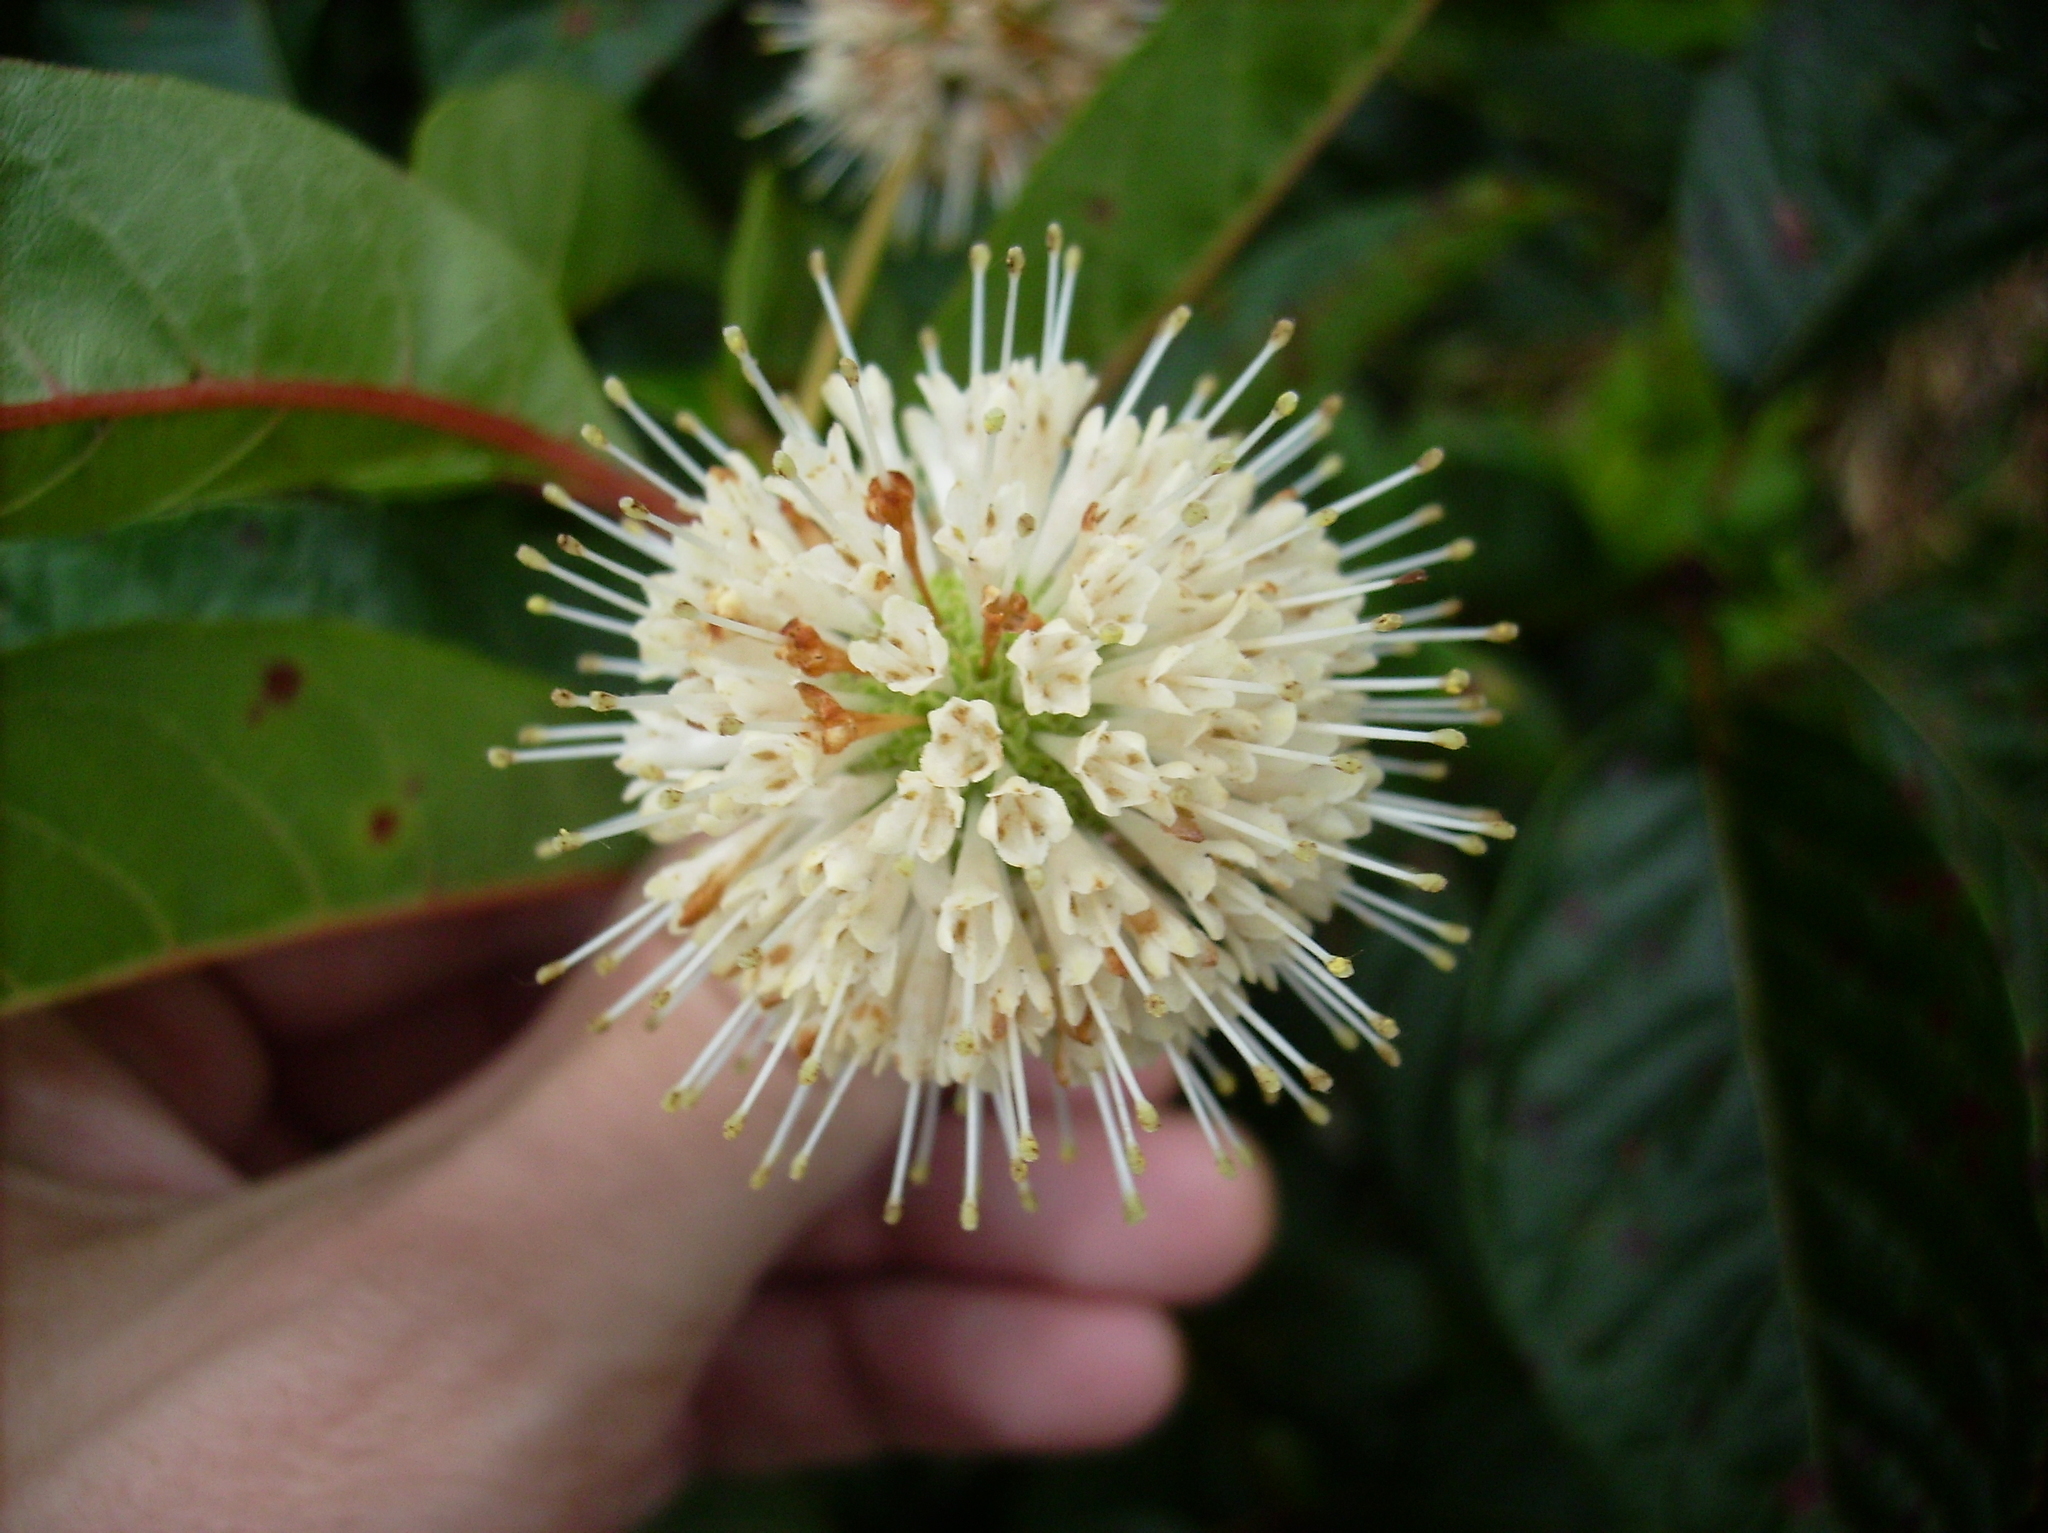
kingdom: Plantae
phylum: Tracheophyta
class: Magnoliopsida
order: Gentianales
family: Rubiaceae
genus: Cephalanthus
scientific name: Cephalanthus occidentalis
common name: Button-willow
